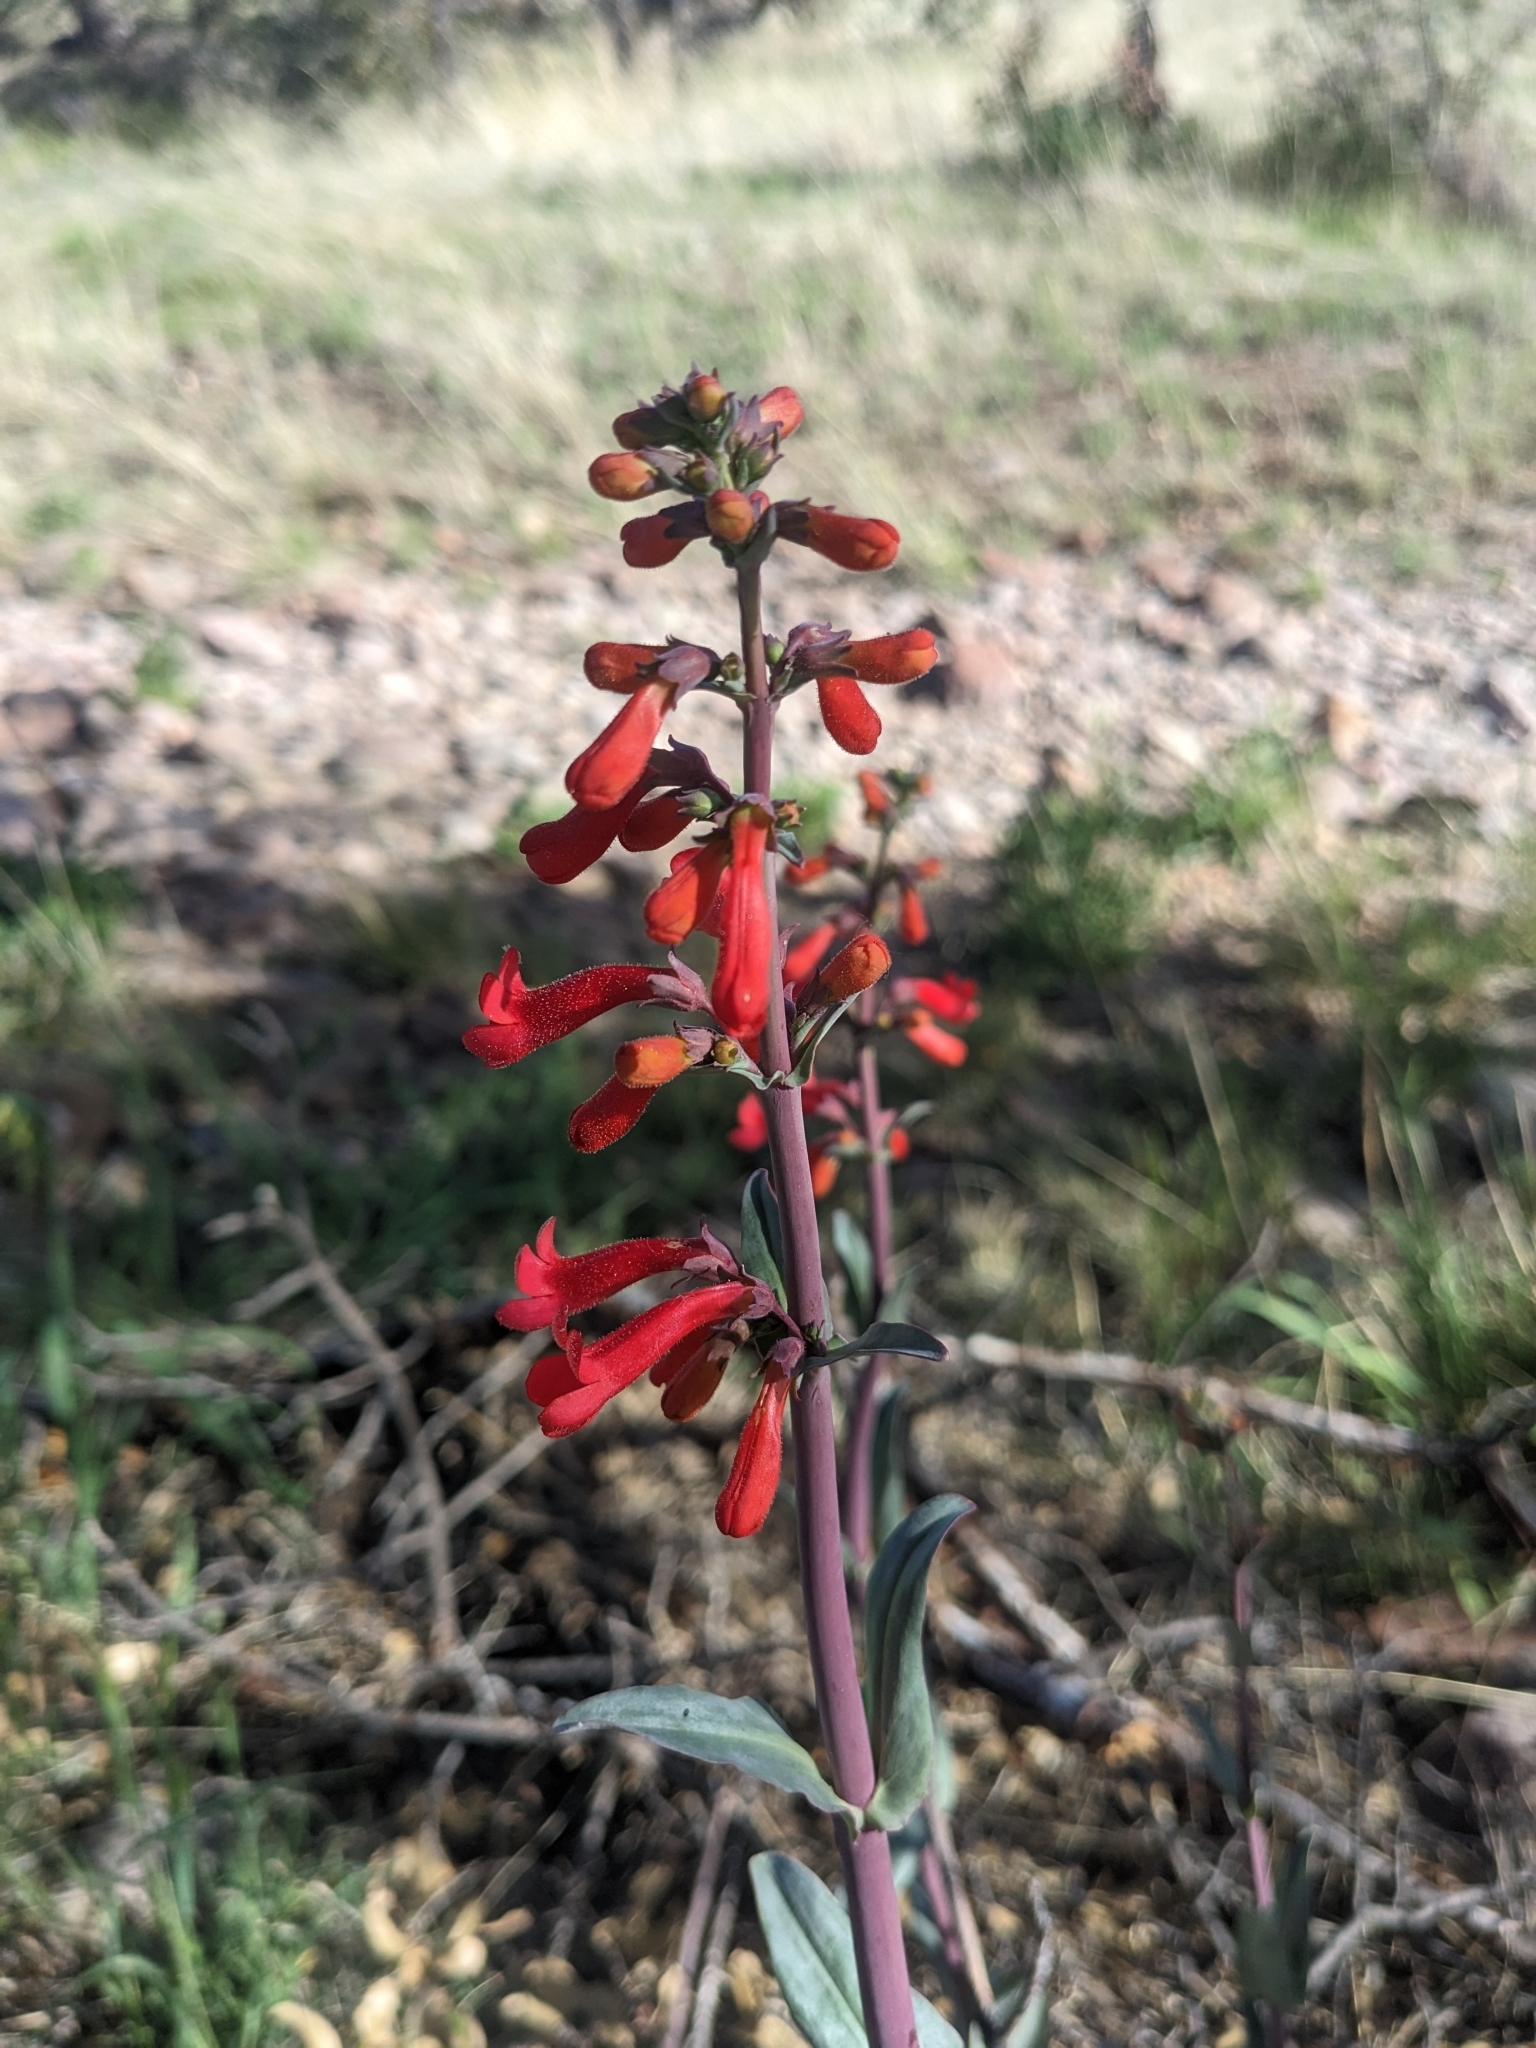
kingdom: Plantae
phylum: Tracheophyta
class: Magnoliopsida
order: Lamiales
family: Plantaginaceae
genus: Penstemon
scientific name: Penstemon superbus
